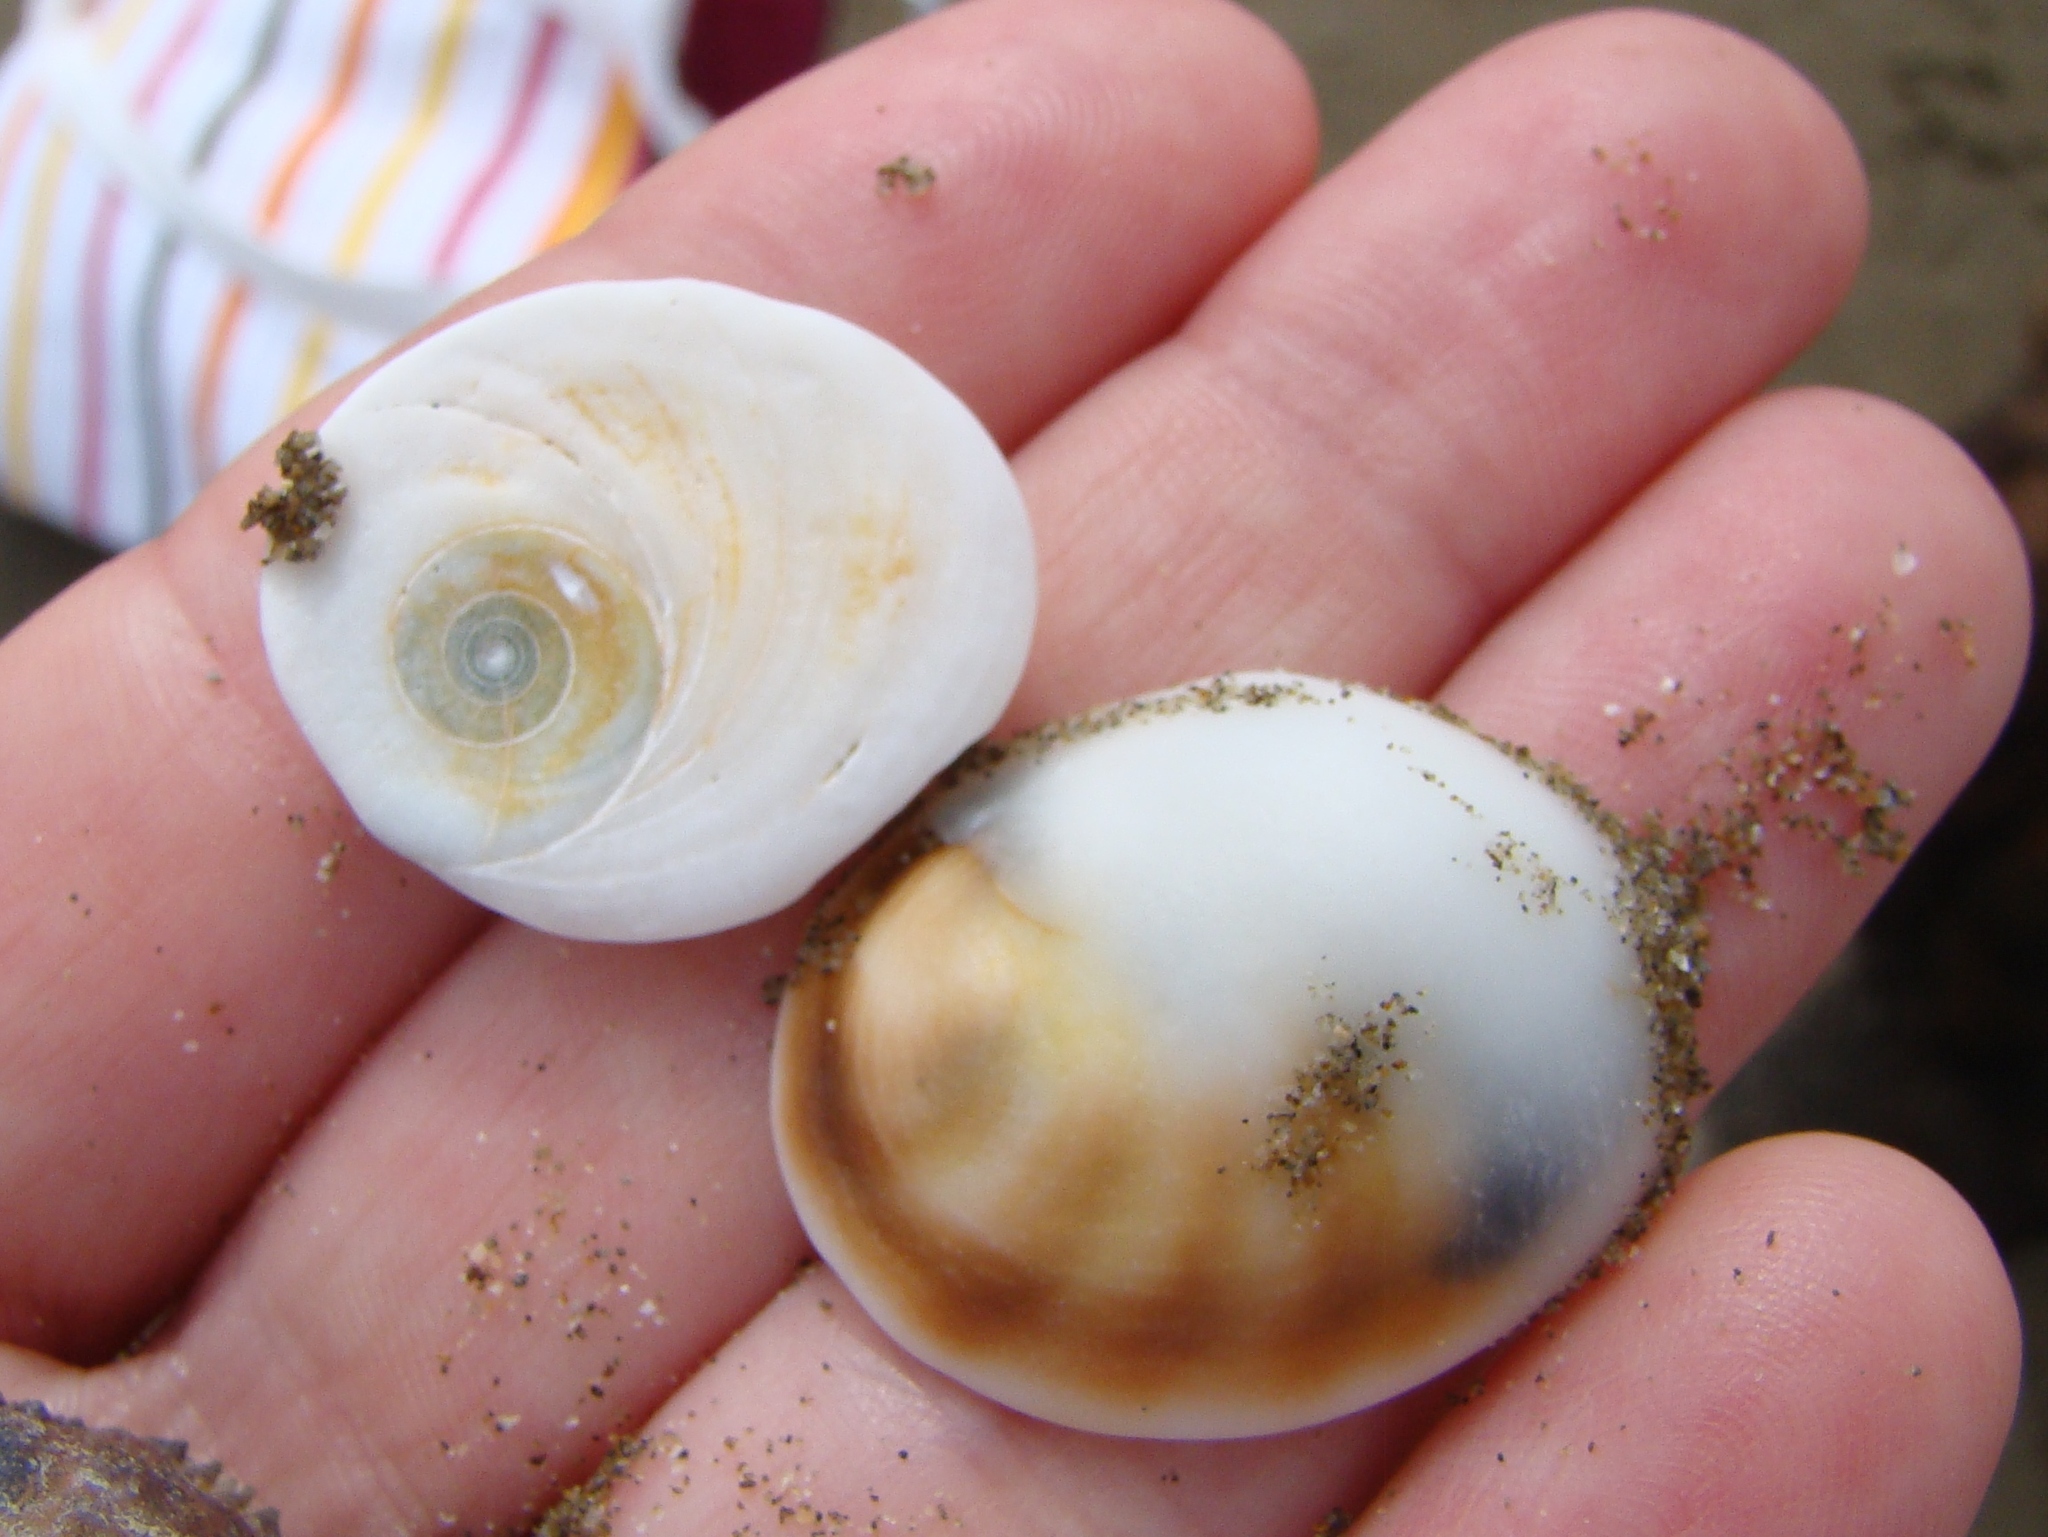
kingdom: Animalia
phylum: Mollusca
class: Gastropoda
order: Trochida
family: Turbinidae
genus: Lunella
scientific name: Lunella smaragda
